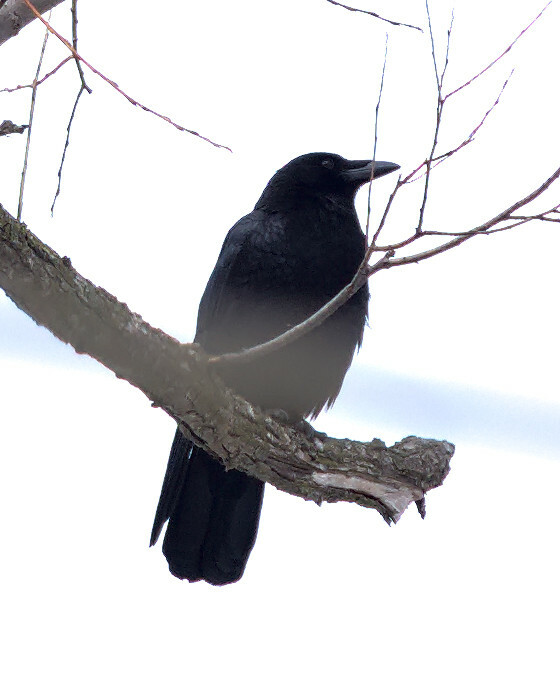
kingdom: Animalia
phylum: Chordata
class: Aves
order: Passeriformes
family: Corvidae
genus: Corvus
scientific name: Corvus brachyrhynchos
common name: American crow
